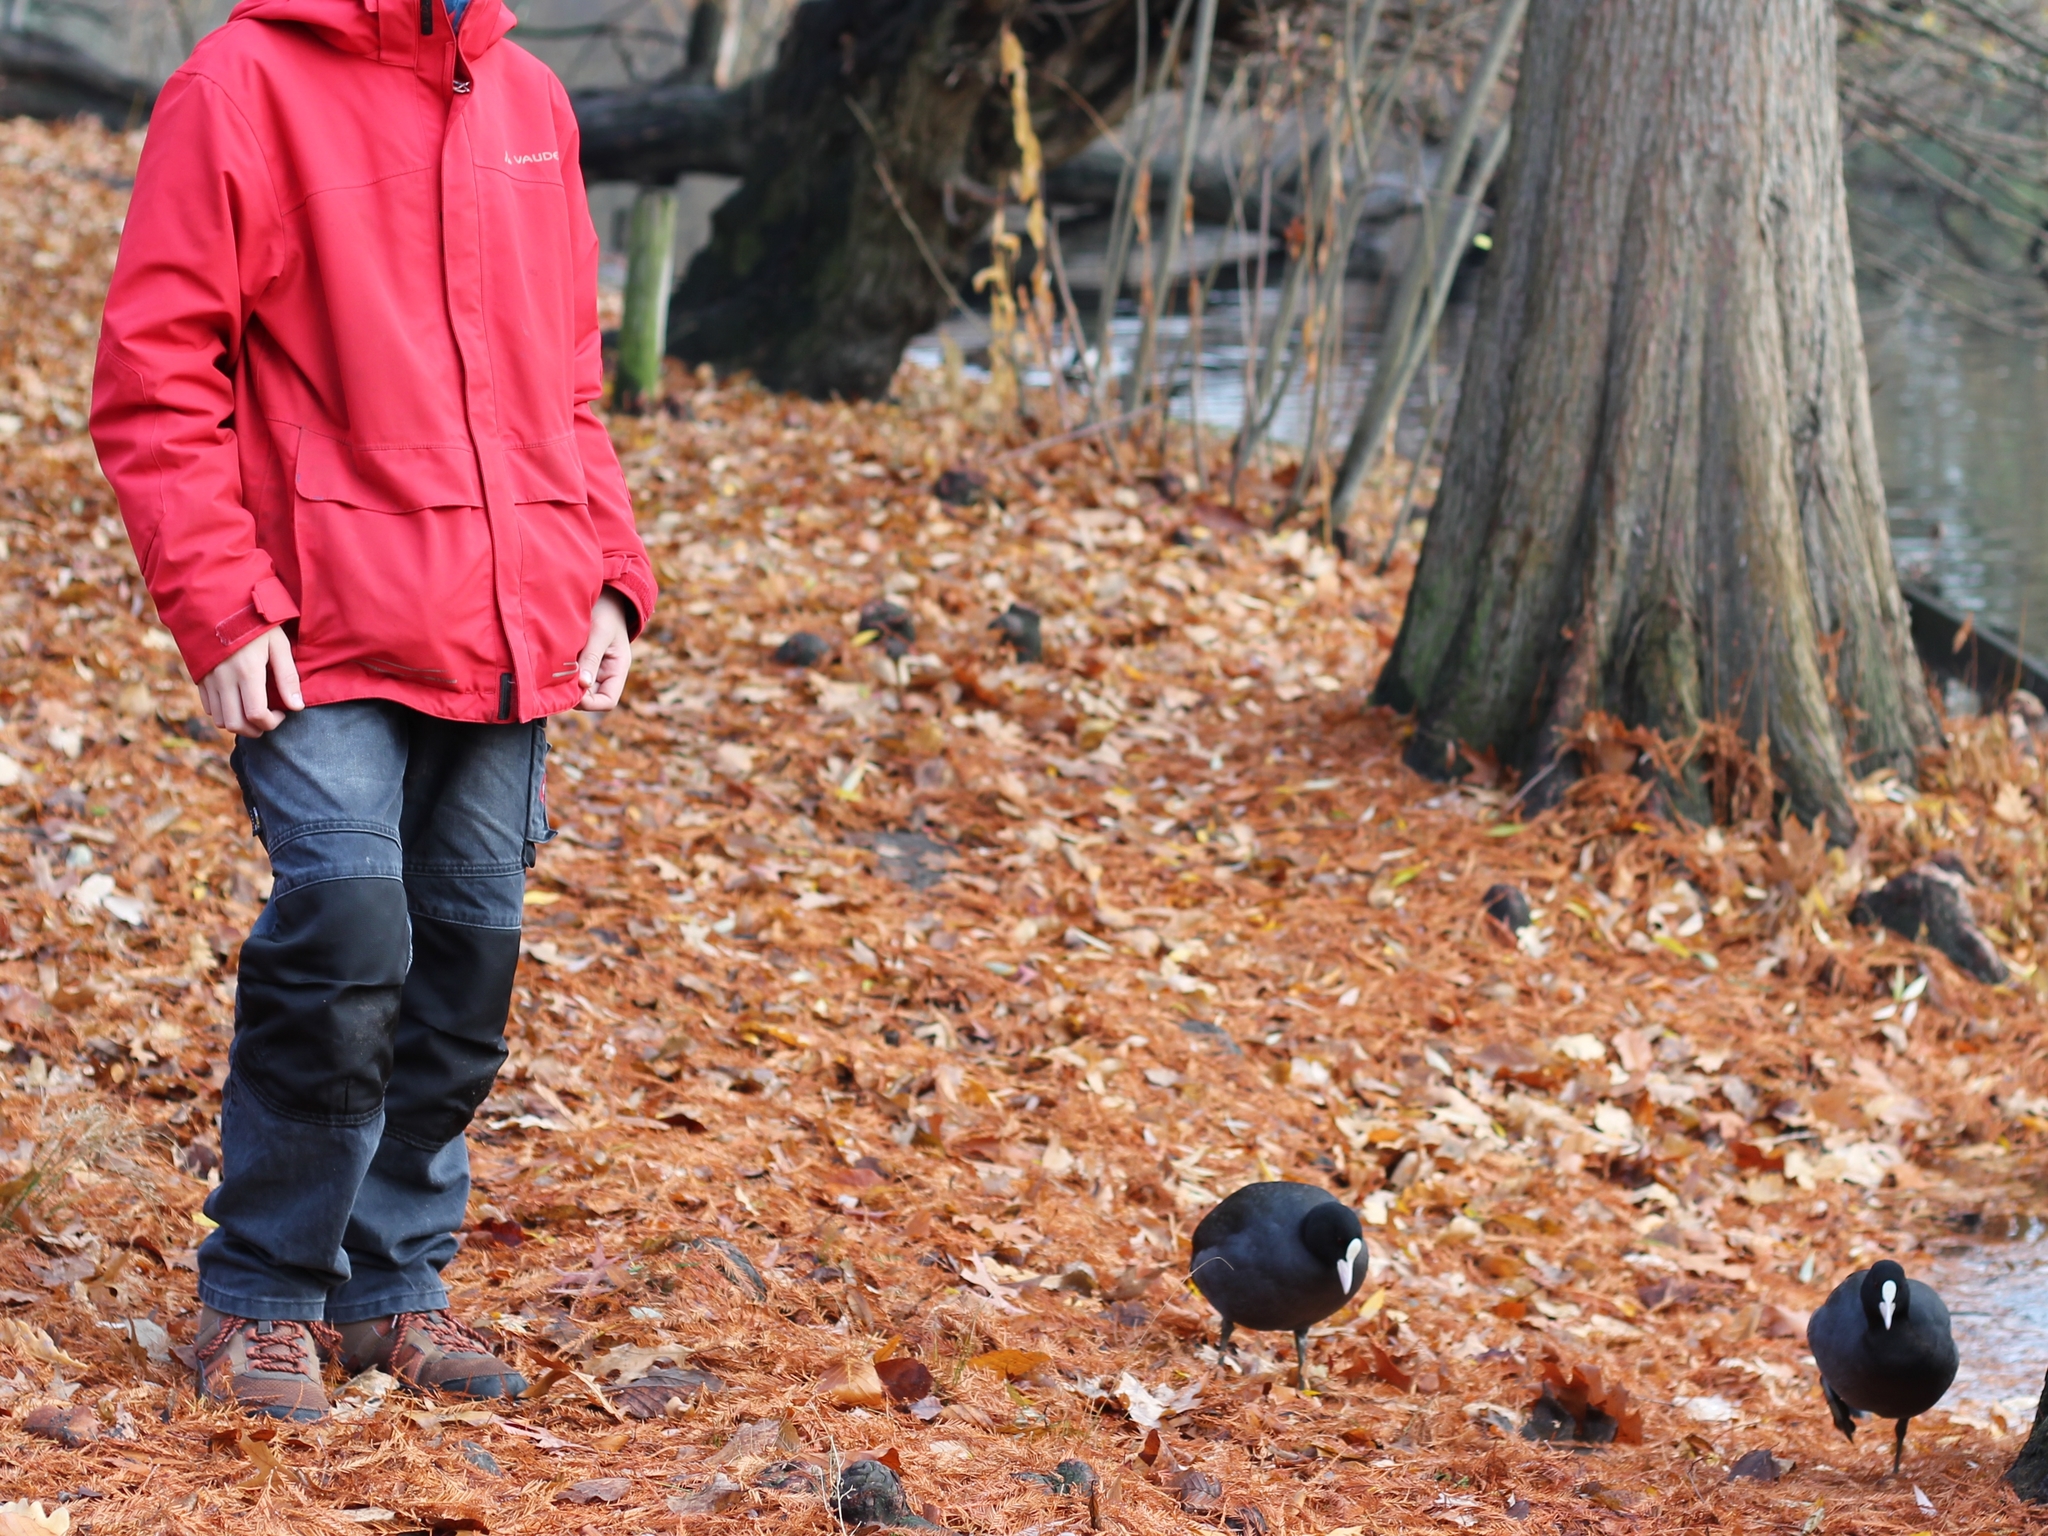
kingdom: Animalia
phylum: Chordata
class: Aves
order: Gruiformes
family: Rallidae
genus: Fulica
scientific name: Fulica atra
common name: Eurasian coot
